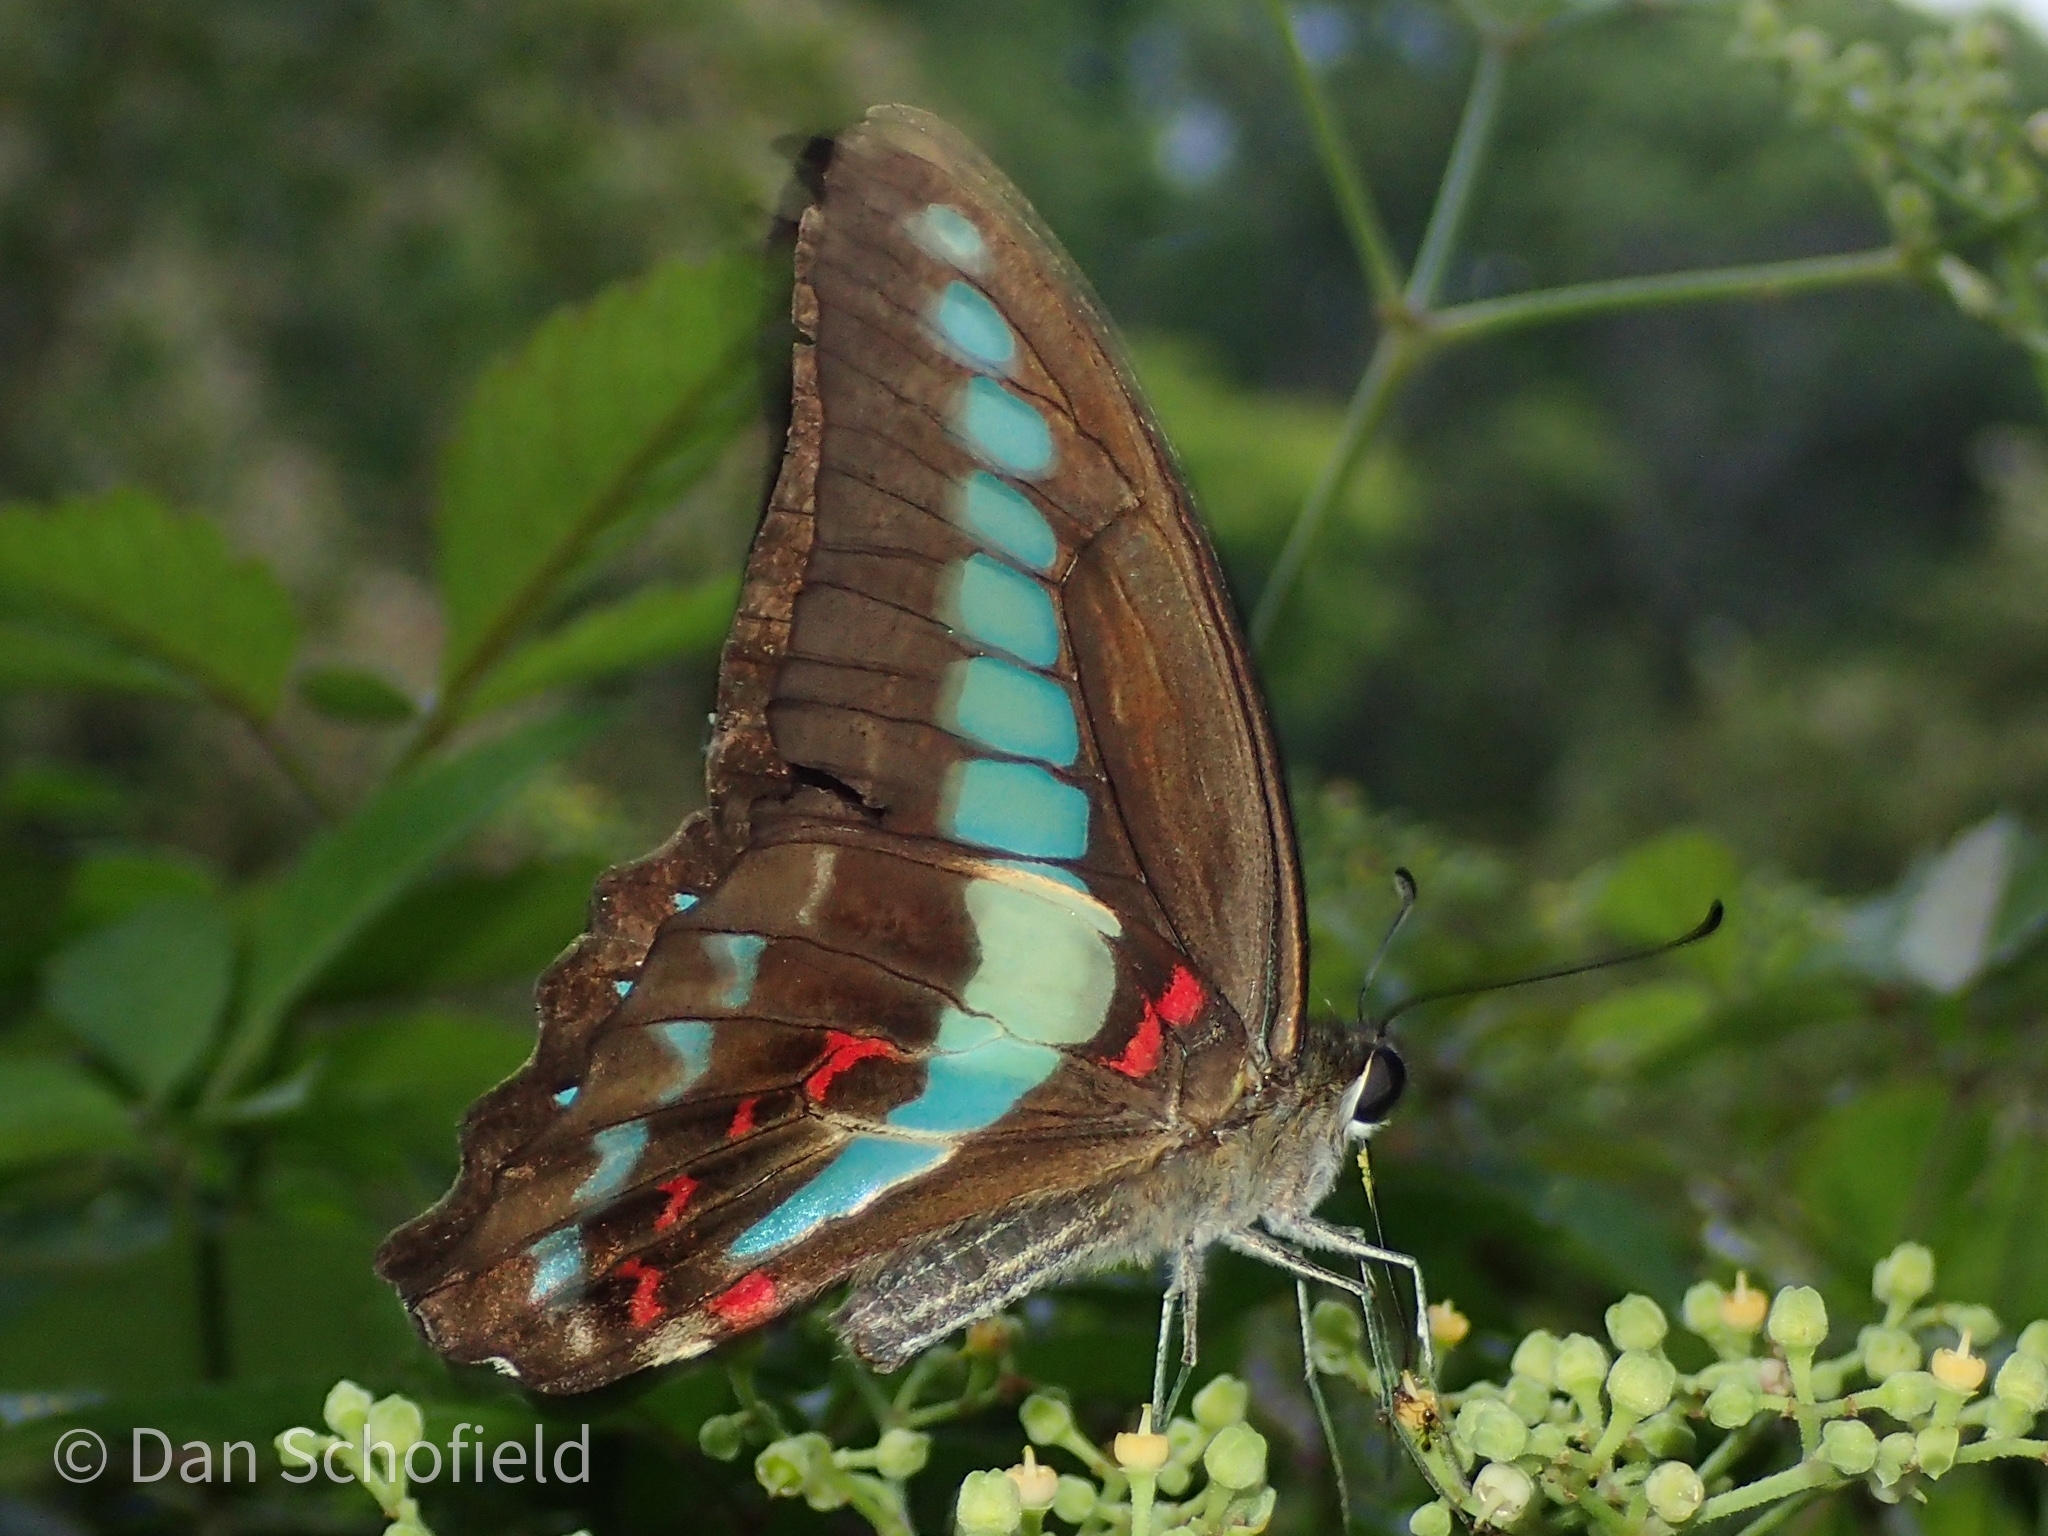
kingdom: Fungi
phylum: Ascomycota
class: Sordariomycetes
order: Microascales
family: Microascaceae
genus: Graphium
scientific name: Graphium sarpedon
